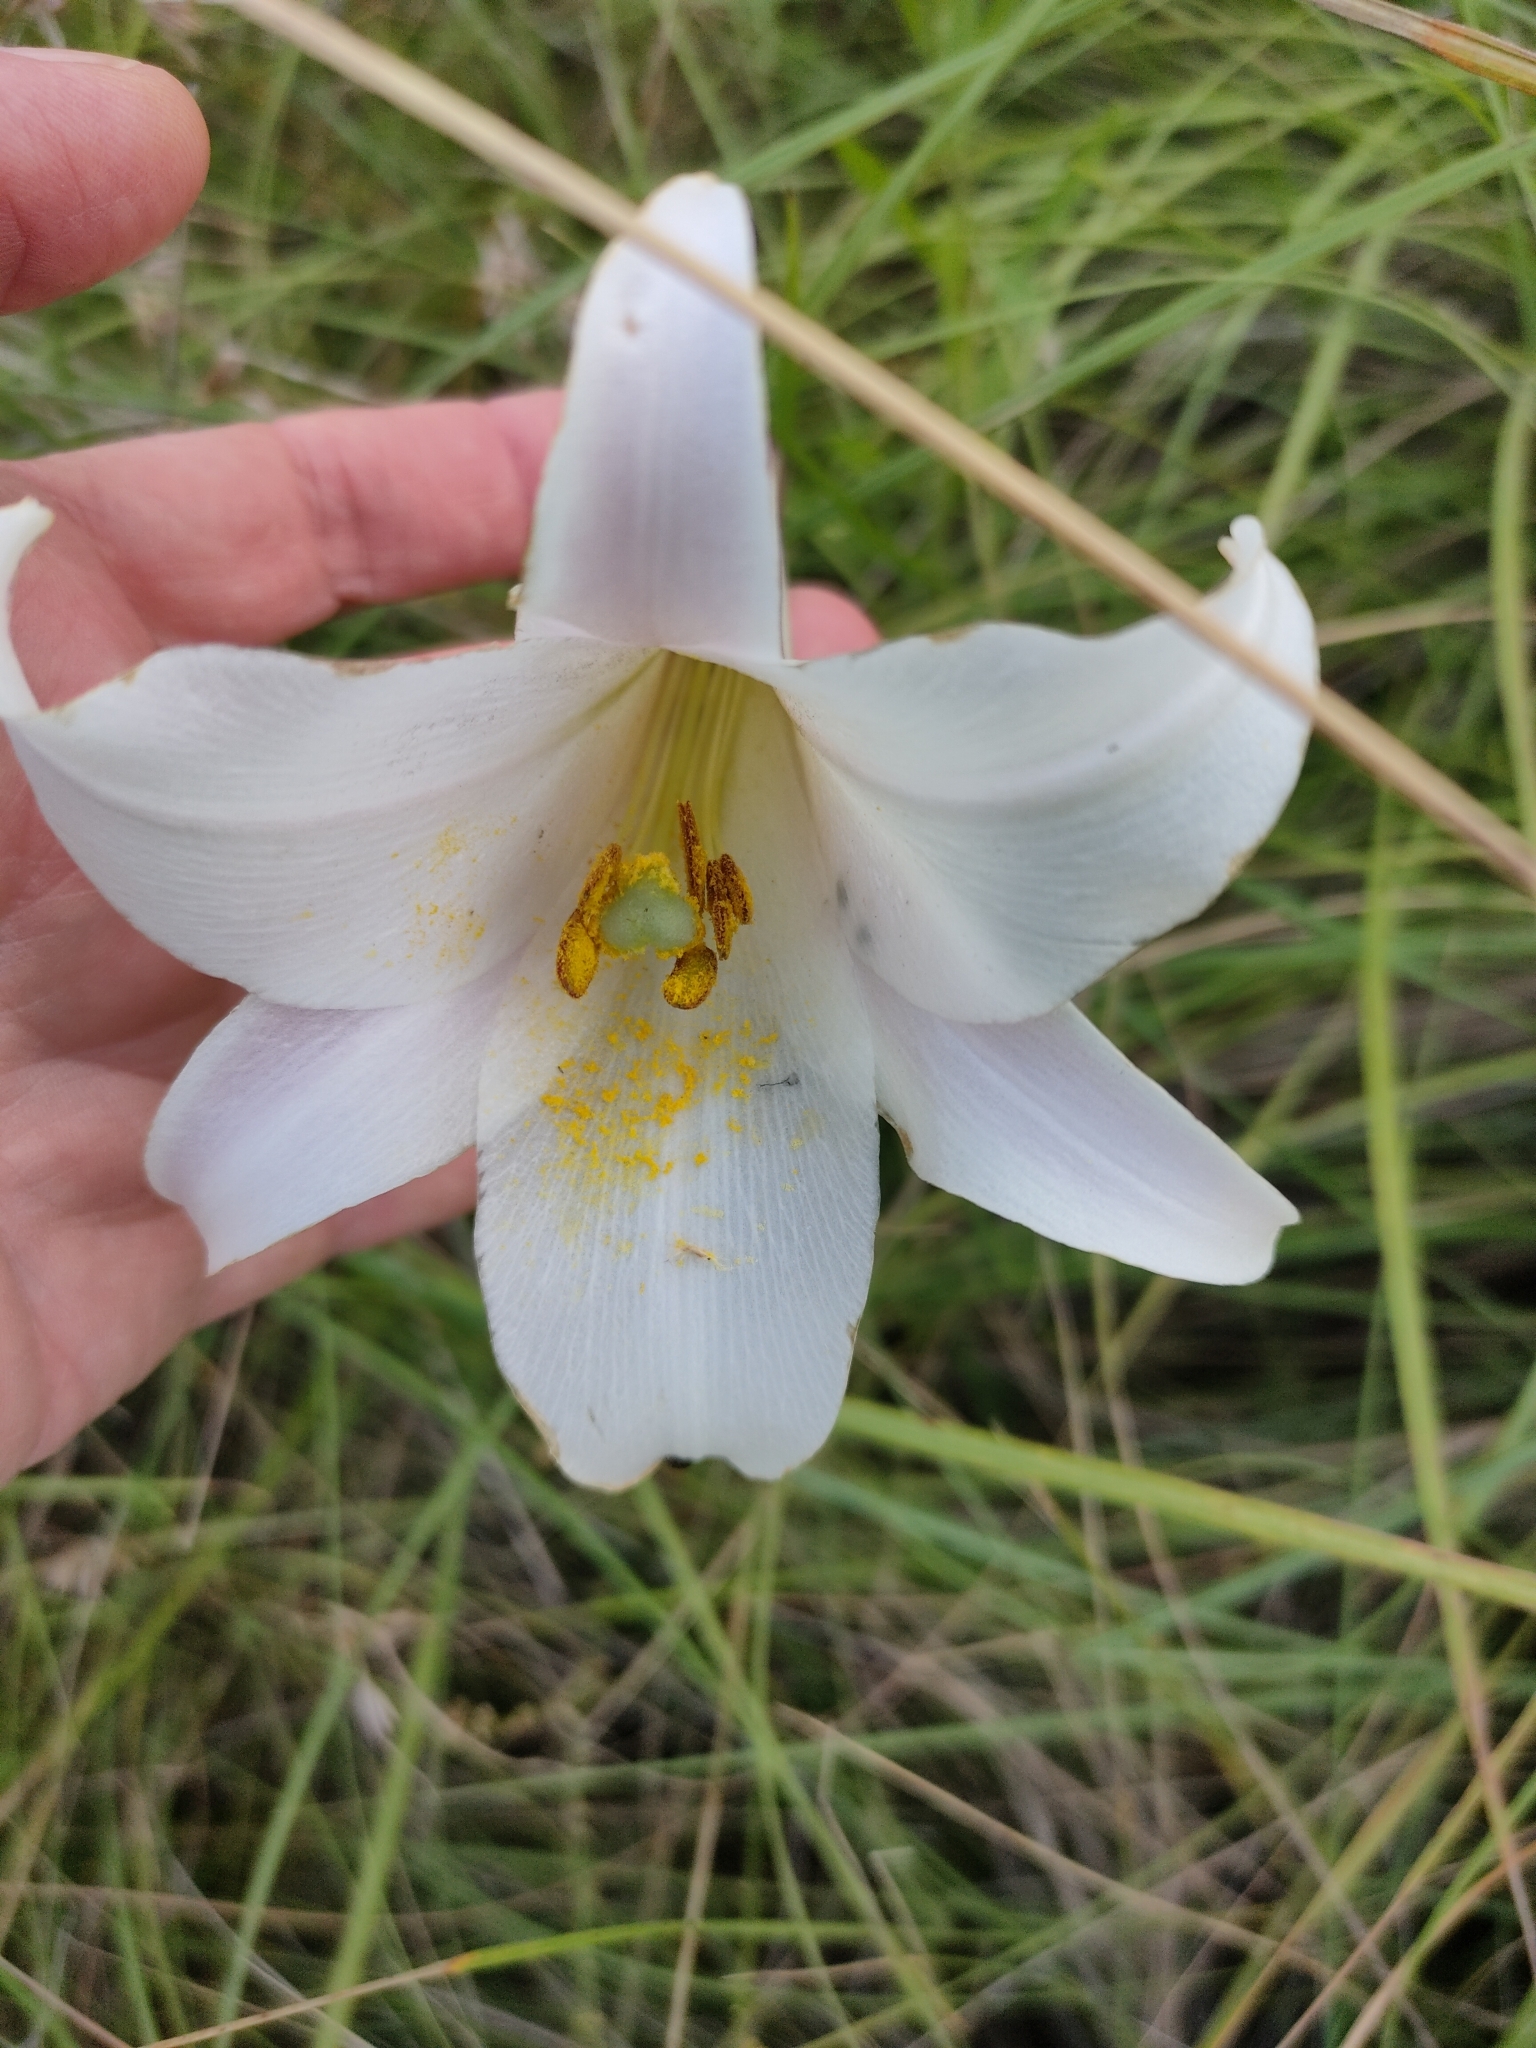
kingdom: Plantae
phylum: Tracheophyta
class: Liliopsida
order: Liliales
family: Liliaceae
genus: Lilium
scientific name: Lilium formosanum
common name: Formosa lily
